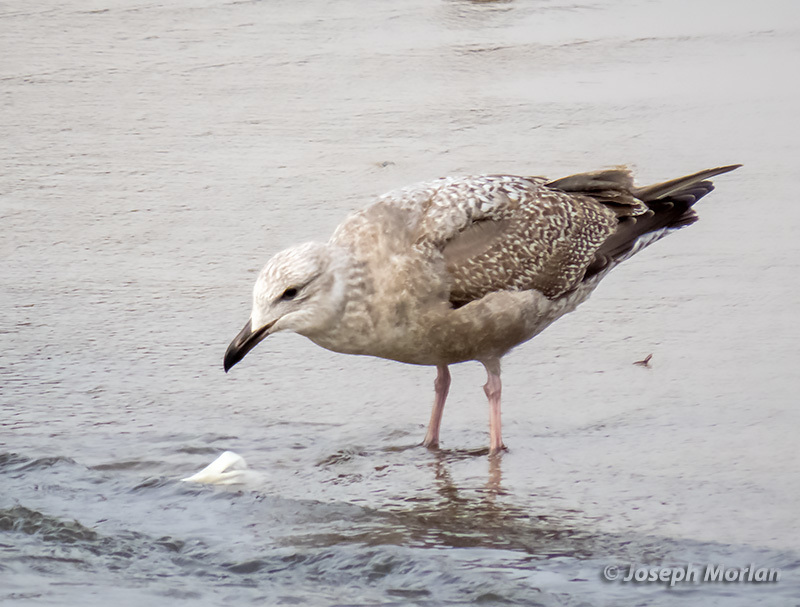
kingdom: Animalia
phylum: Chordata
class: Aves
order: Charadriiformes
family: Laridae
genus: Larus
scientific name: Larus argentatus
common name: Herring gull
